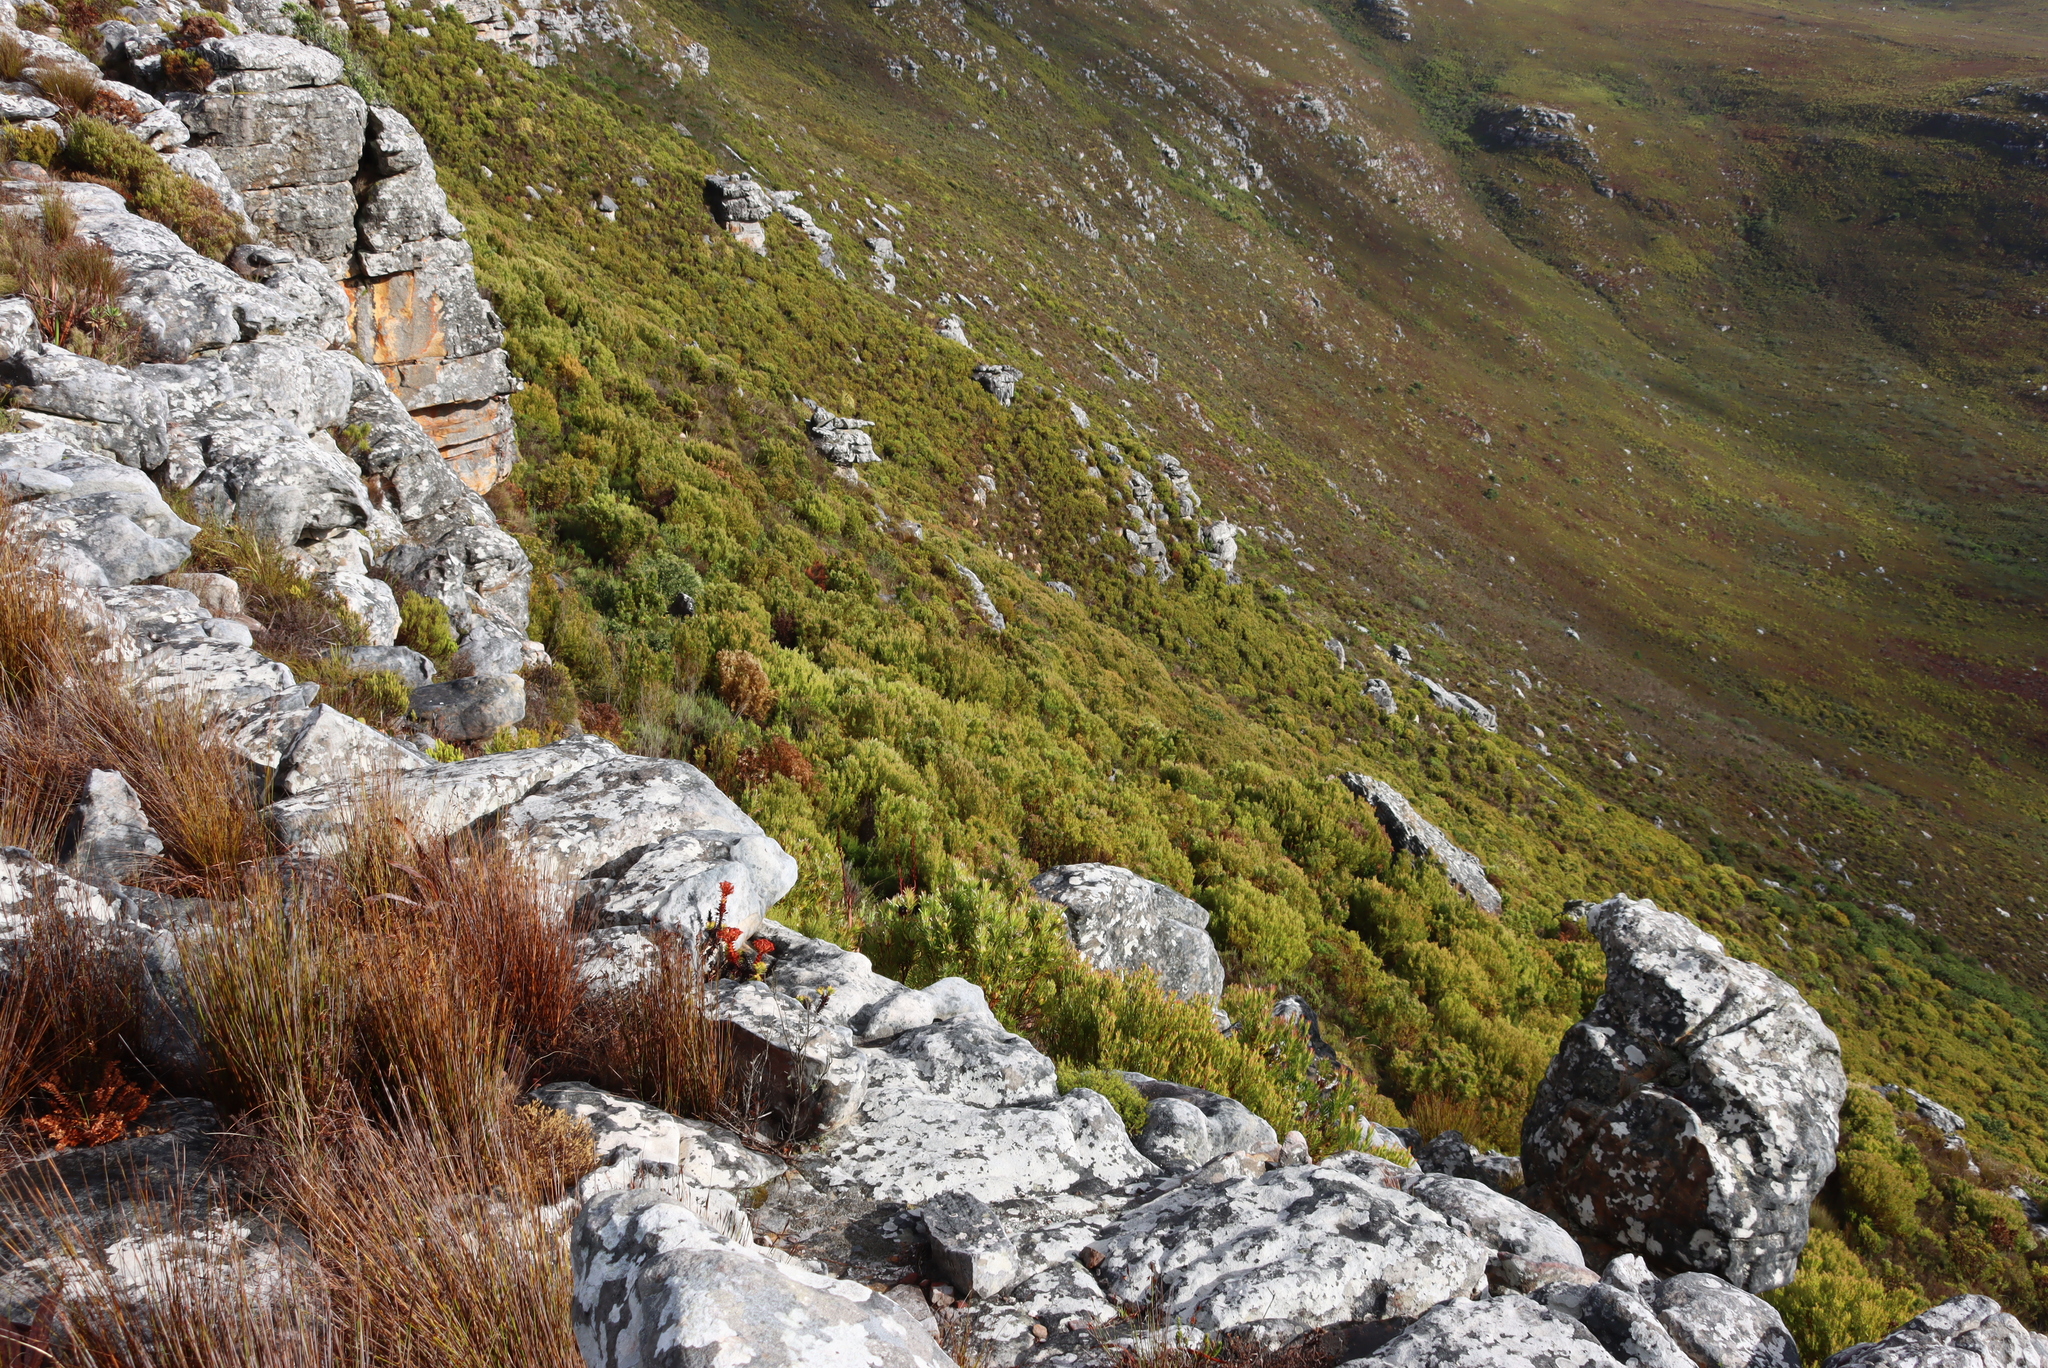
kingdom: Plantae
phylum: Tracheophyta
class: Magnoliopsida
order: Proteales
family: Proteaceae
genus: Leucadendron
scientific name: Leucadendron xanthoconus
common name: Sickle-leaf conebush
